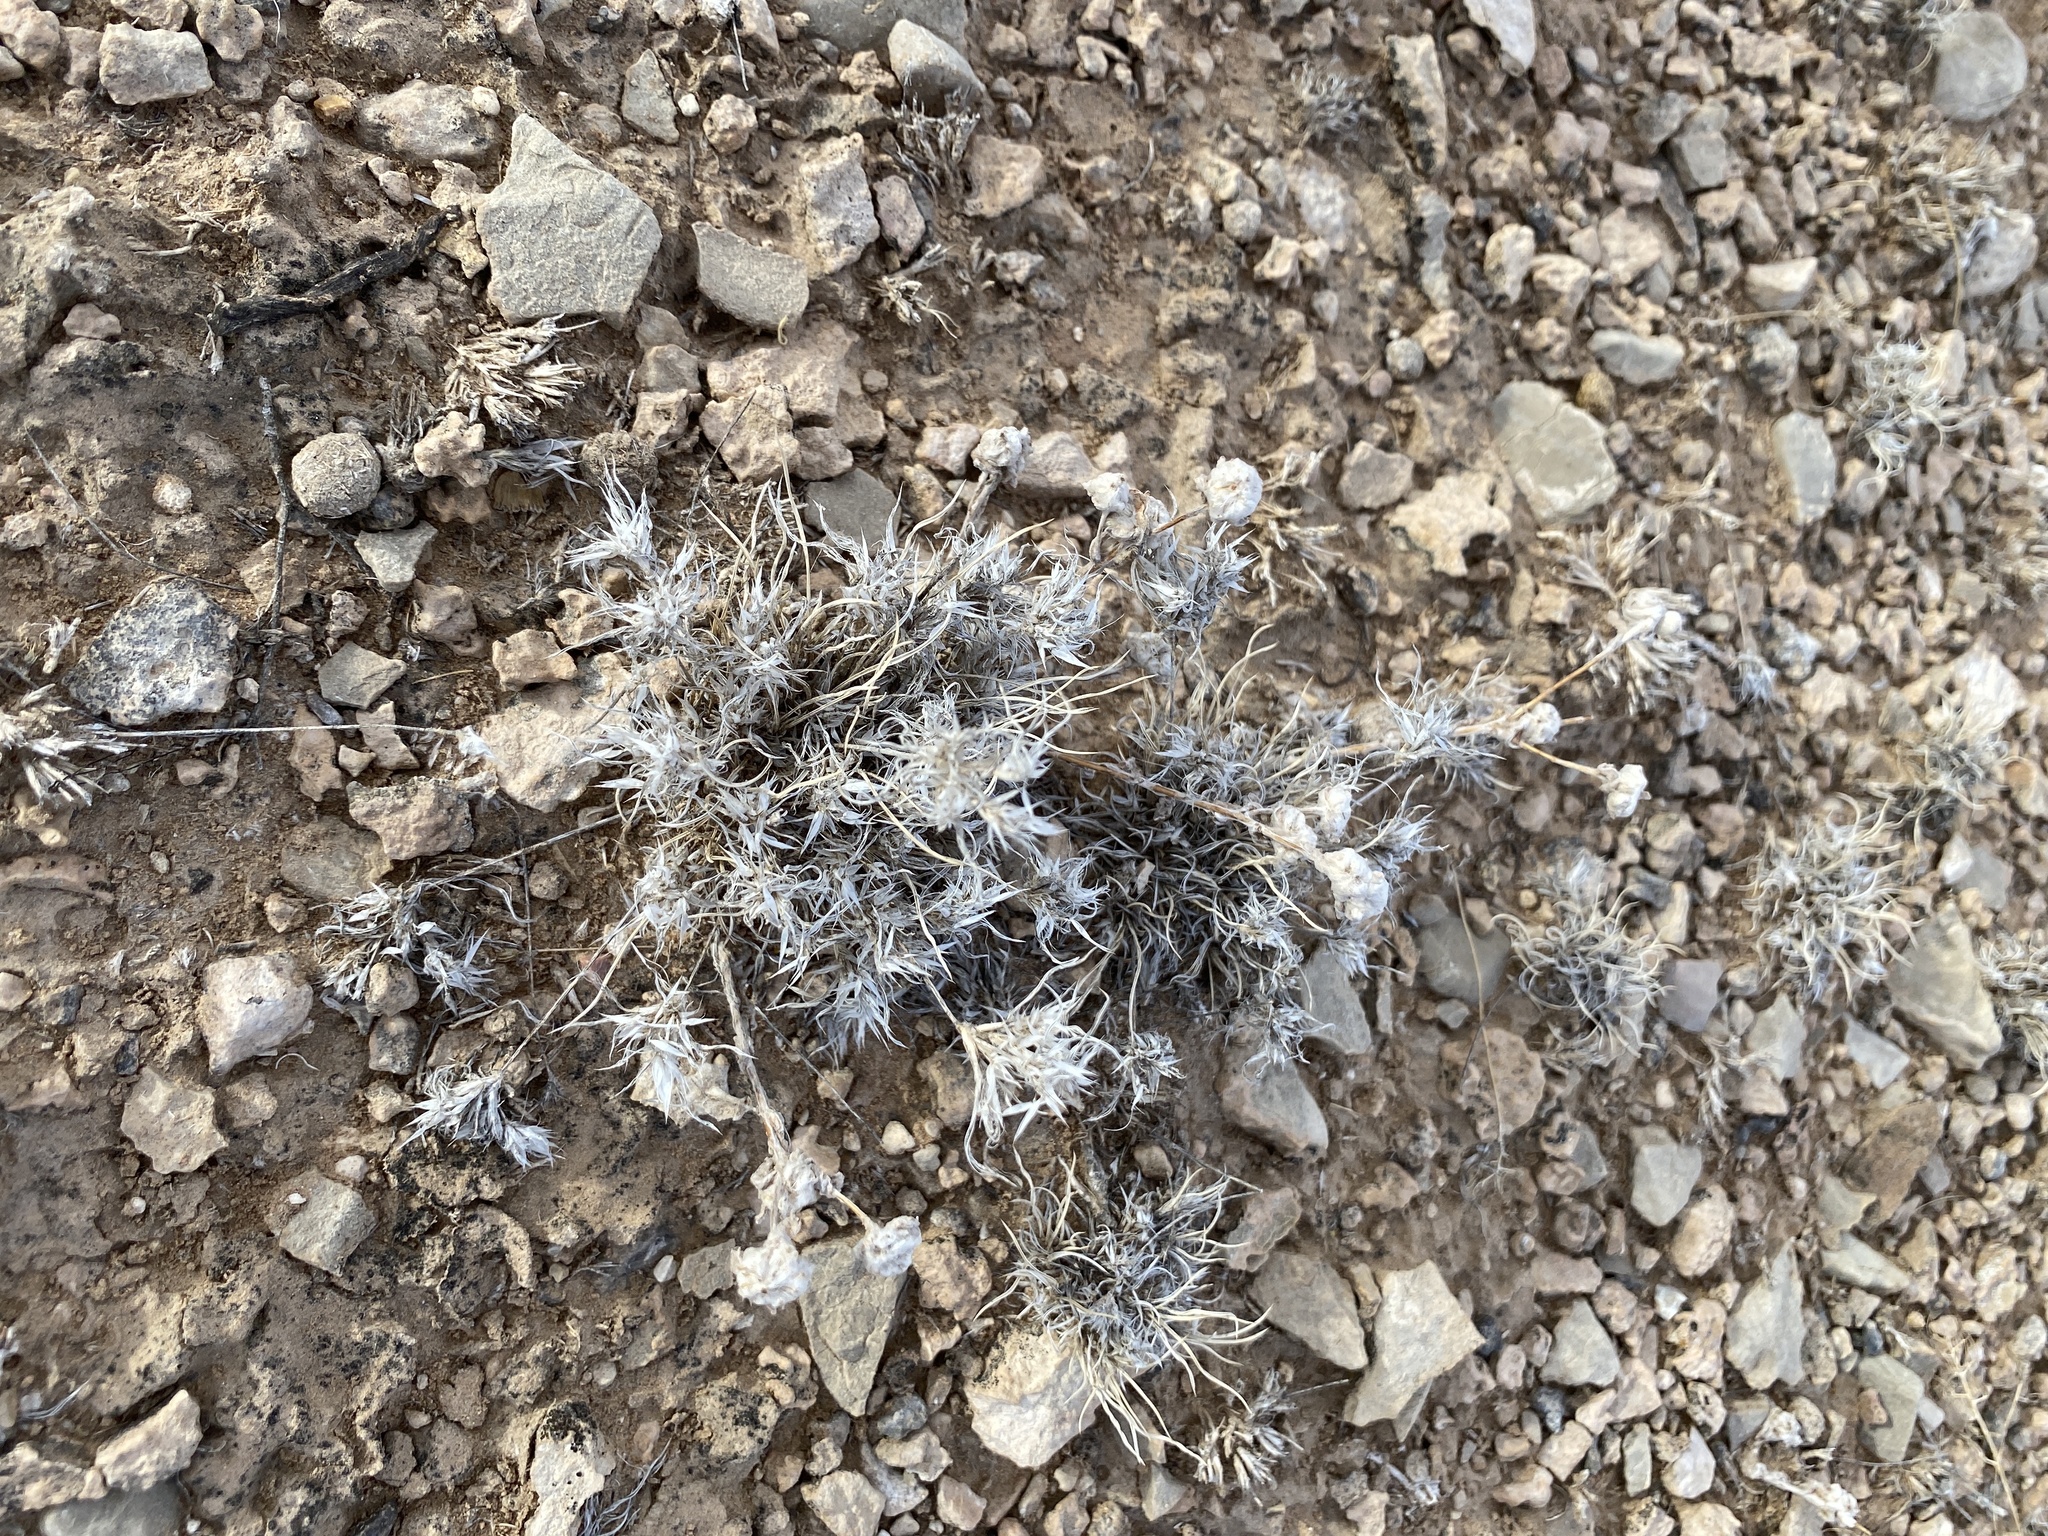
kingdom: Plantae
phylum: Tracheophyta
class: Liliopsida
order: Poales
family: Poaceae
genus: Dasyochloa
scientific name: Dasyochloa pulchella
